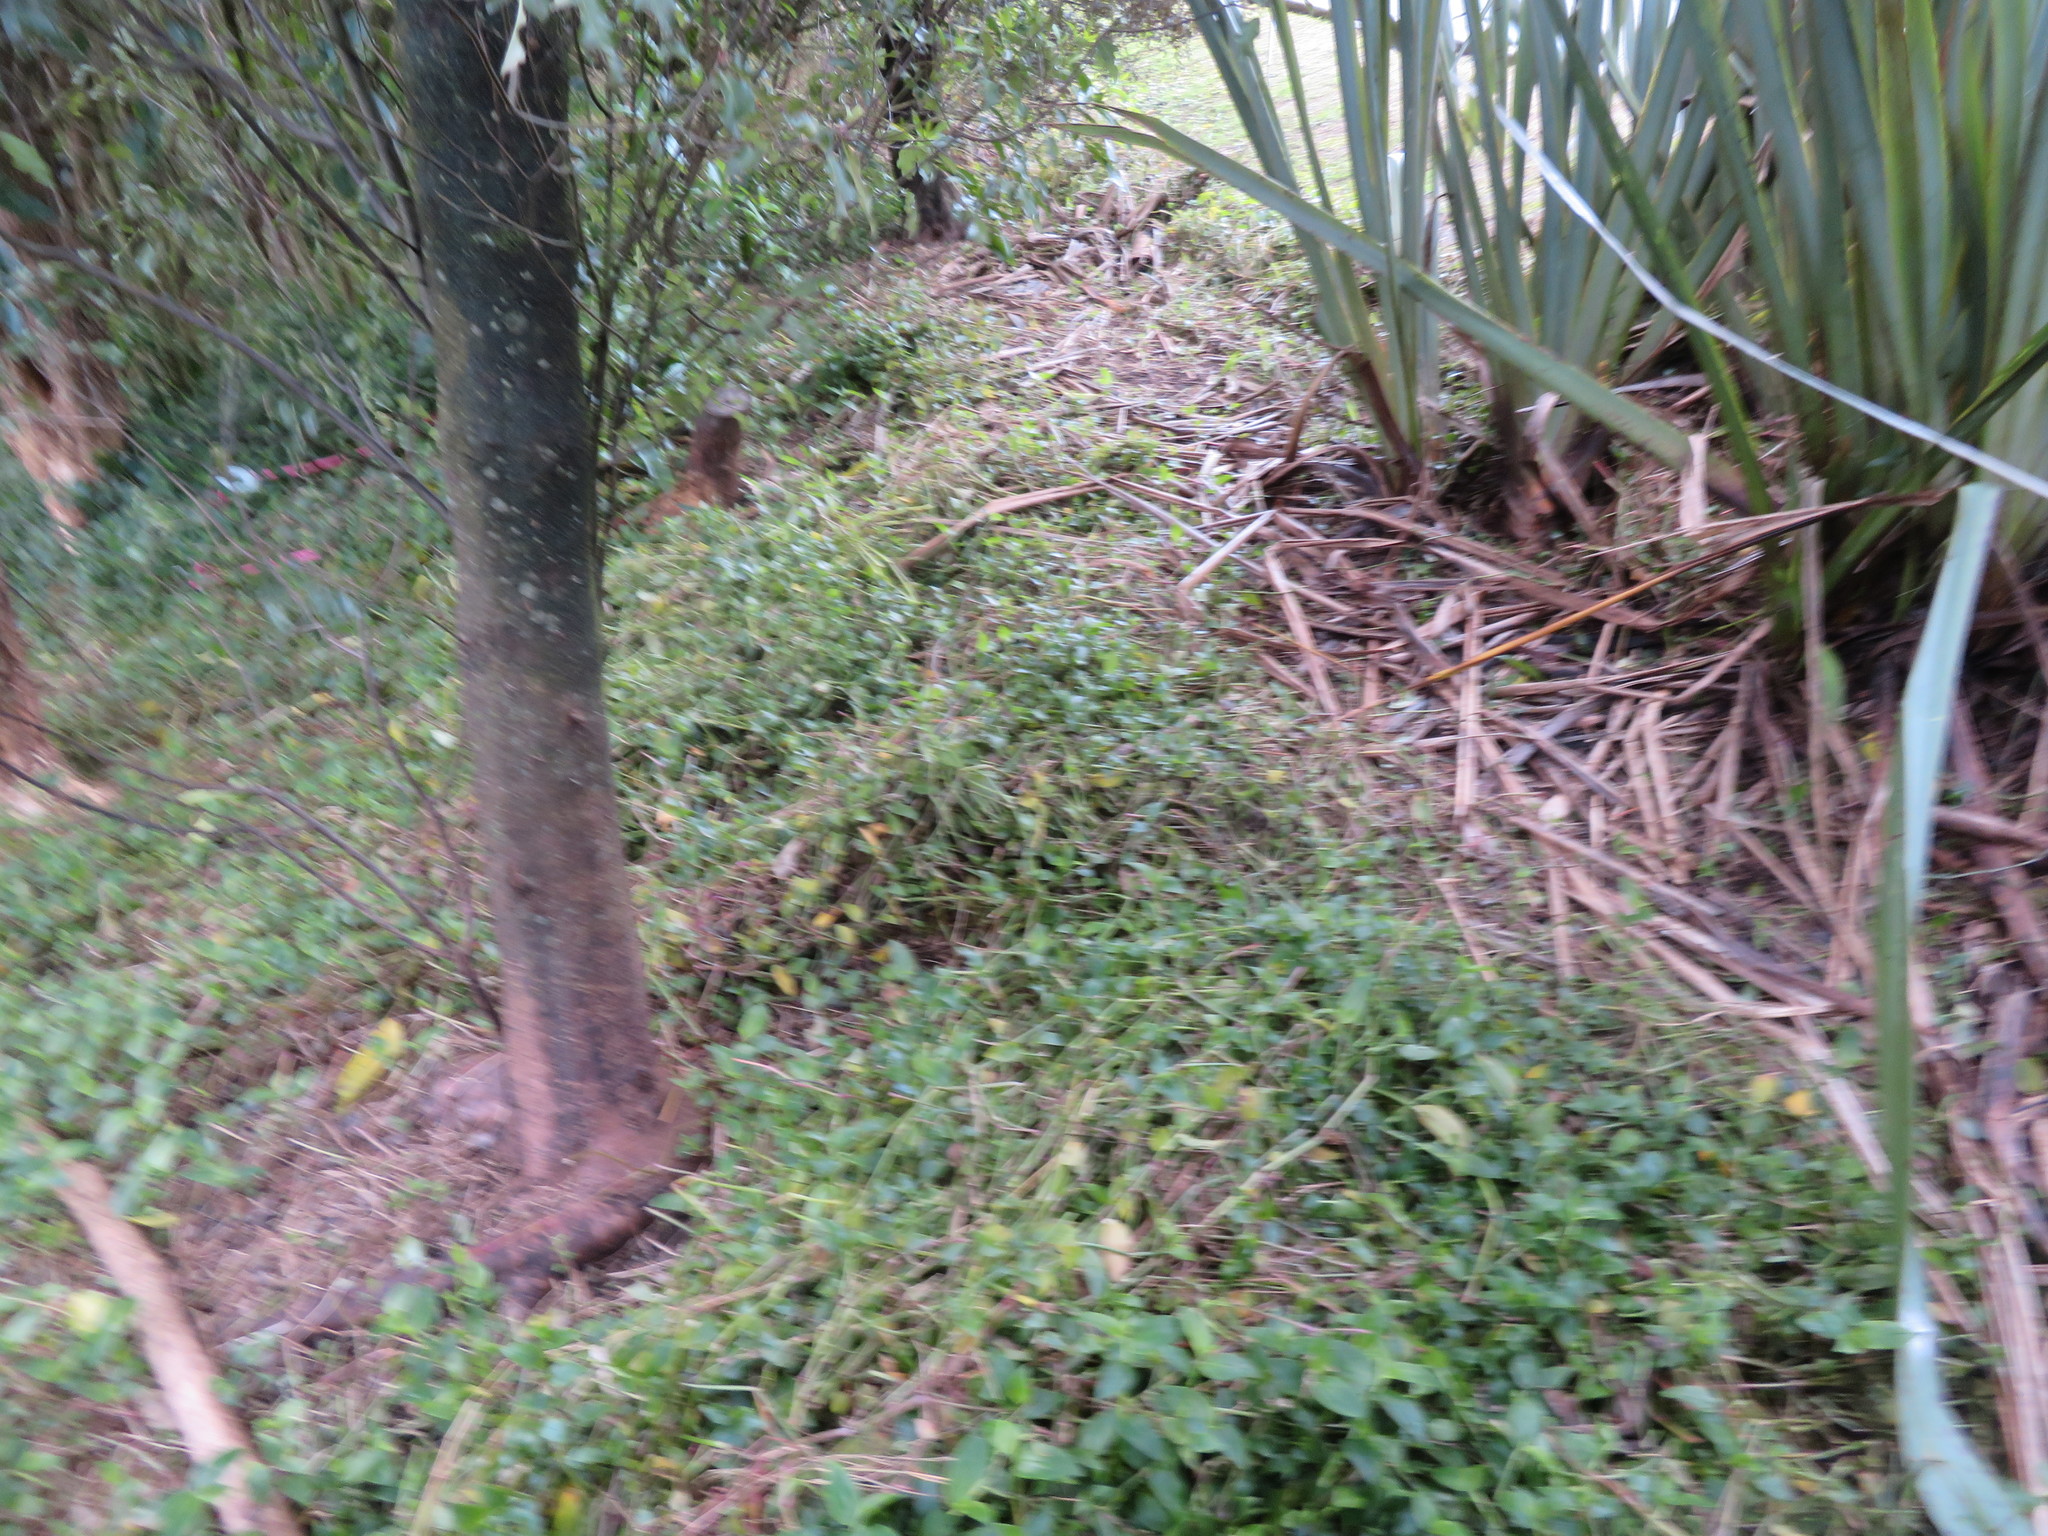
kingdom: Plantae
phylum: Tracheophyta
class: Liliopsida
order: Commelinales
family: Commelinaceae
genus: Tradescantia
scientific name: Tradescantia fluminensis
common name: Wandering-jew
